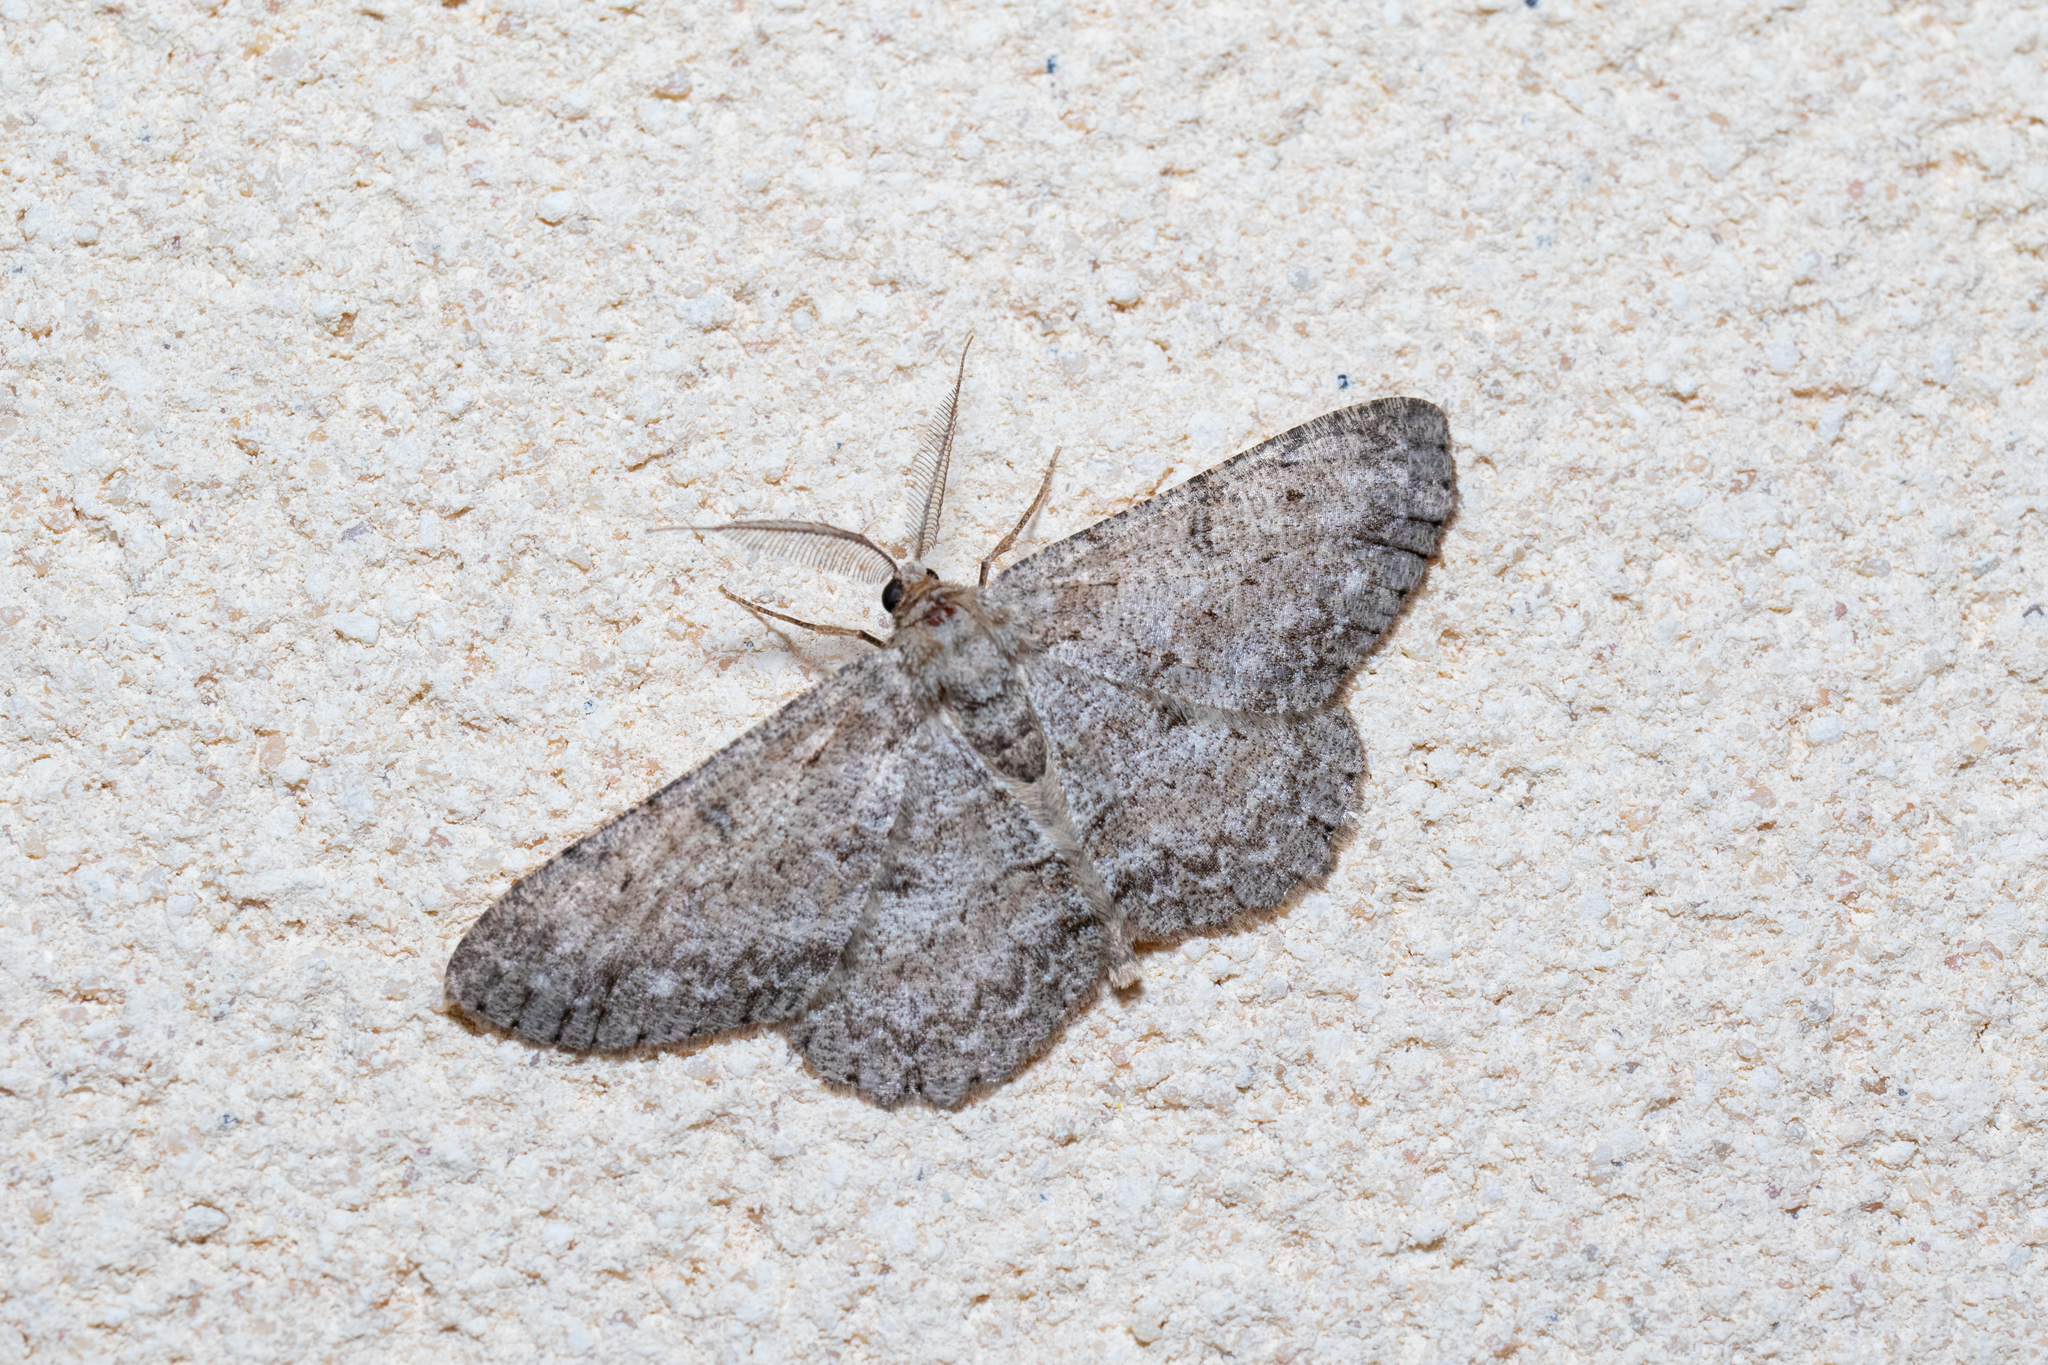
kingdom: Animalia
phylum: Arthropoda
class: Insecta
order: Lepidoptera
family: Geometridae
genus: Hypomecis
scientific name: Hypomecis punctinalis
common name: Pale oak beauty
